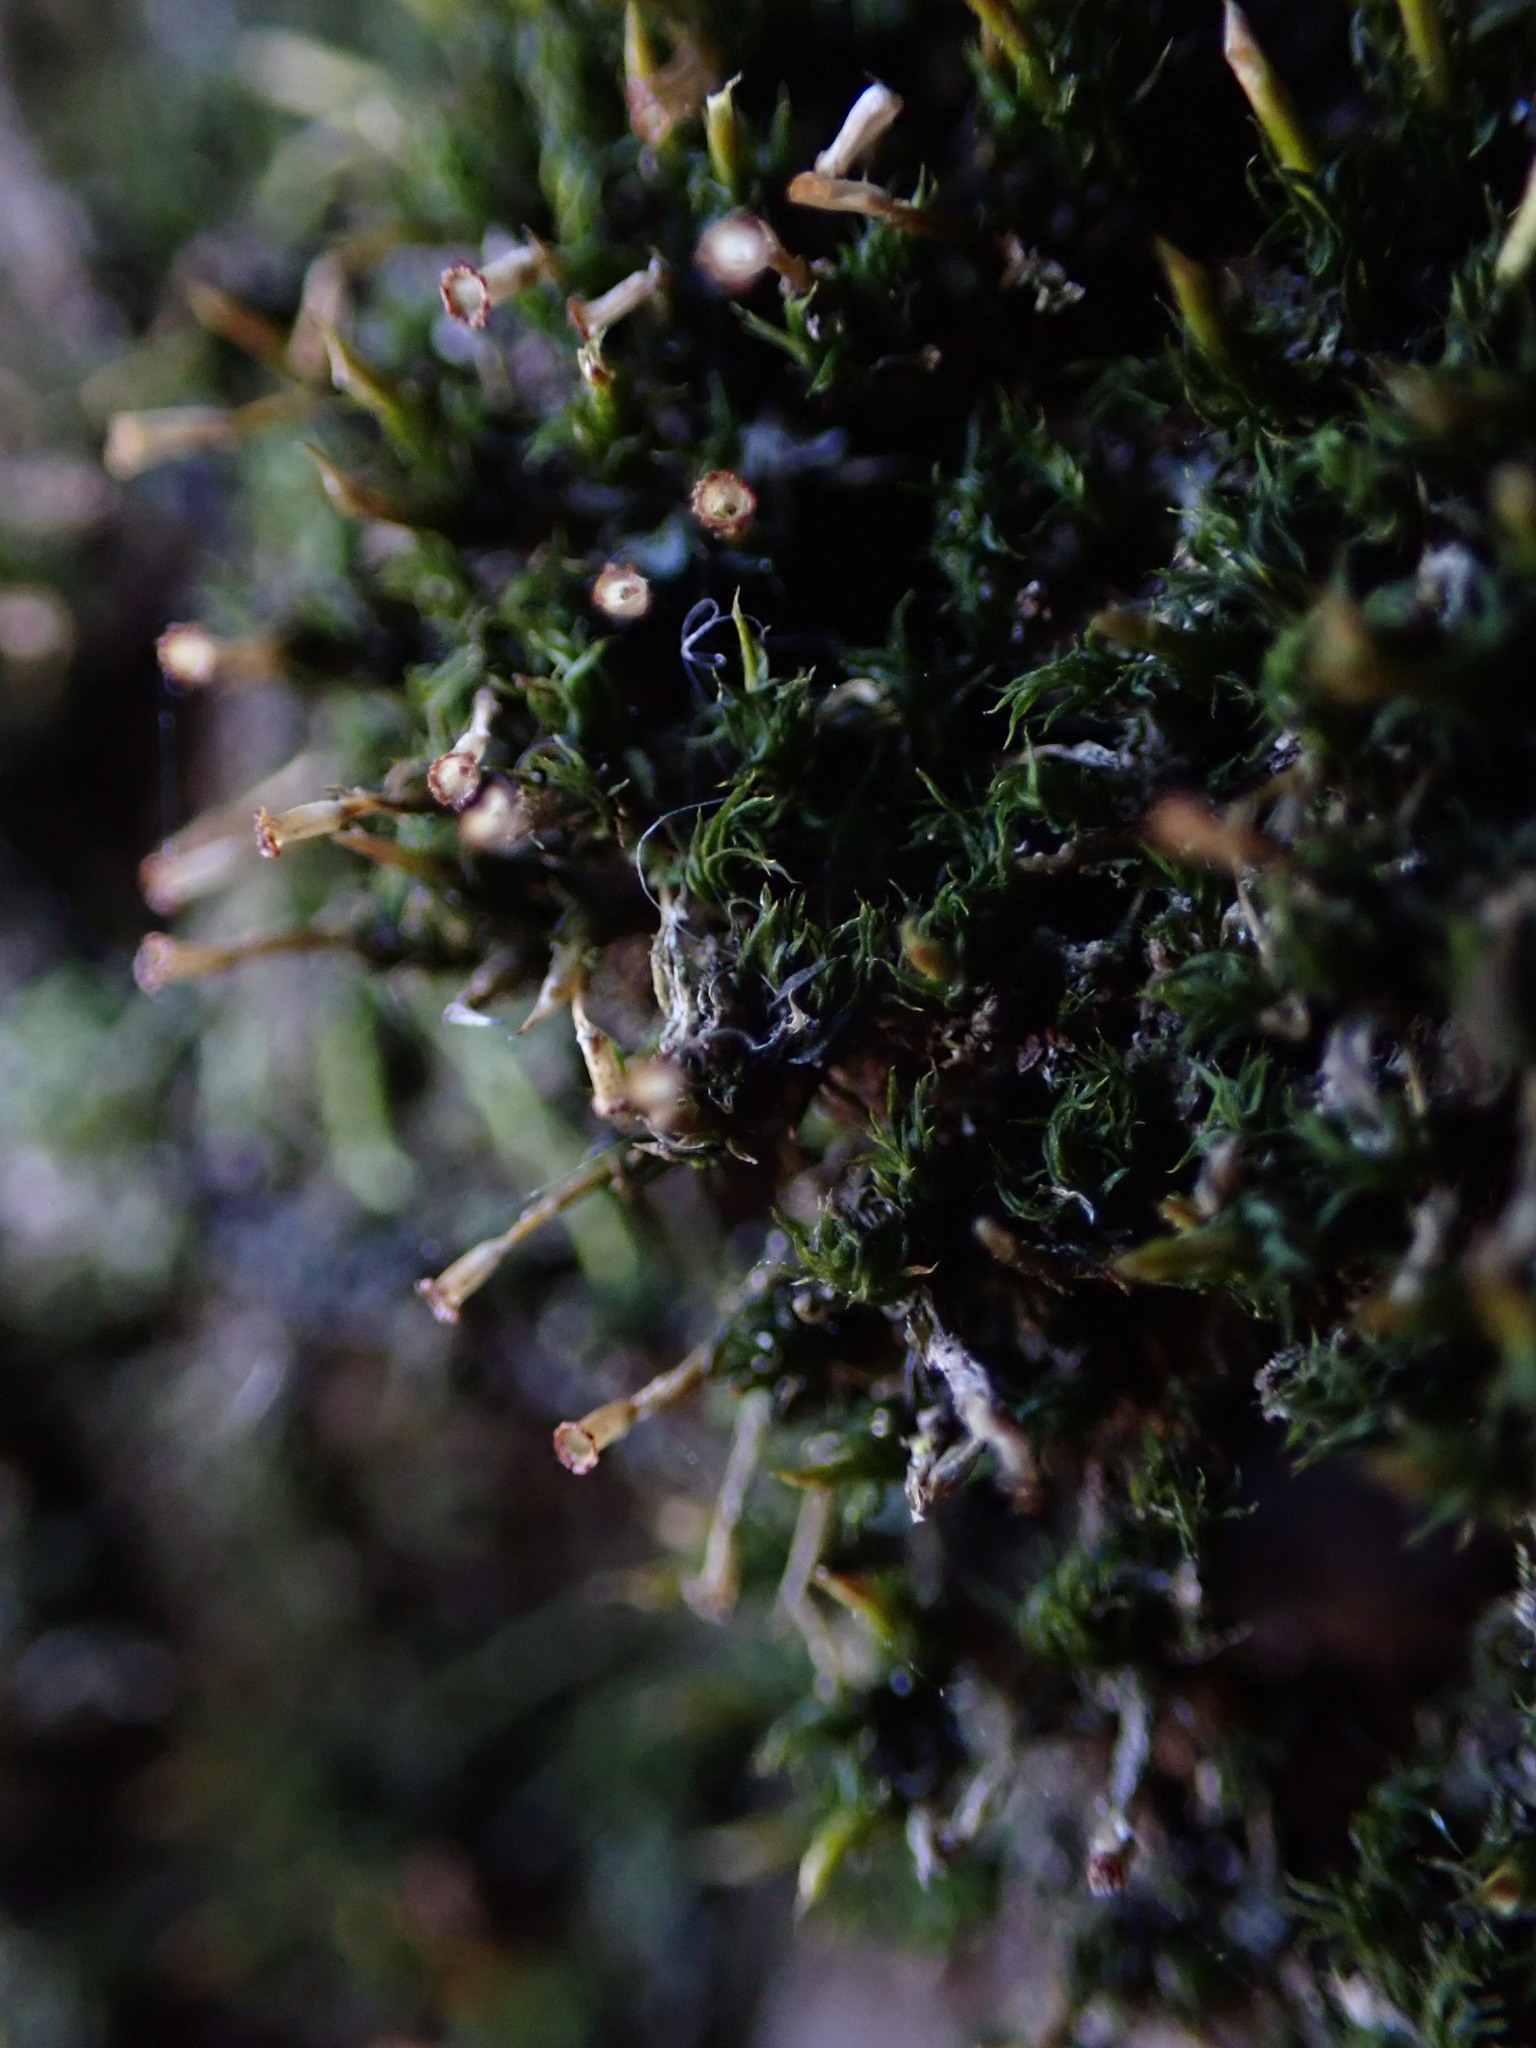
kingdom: Plantae
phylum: Bryophyta
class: Bryopsida
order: Dicranales
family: Rhabdoweisiaceae
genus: Glyphomitrium
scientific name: Glyphomitrium humillimum
